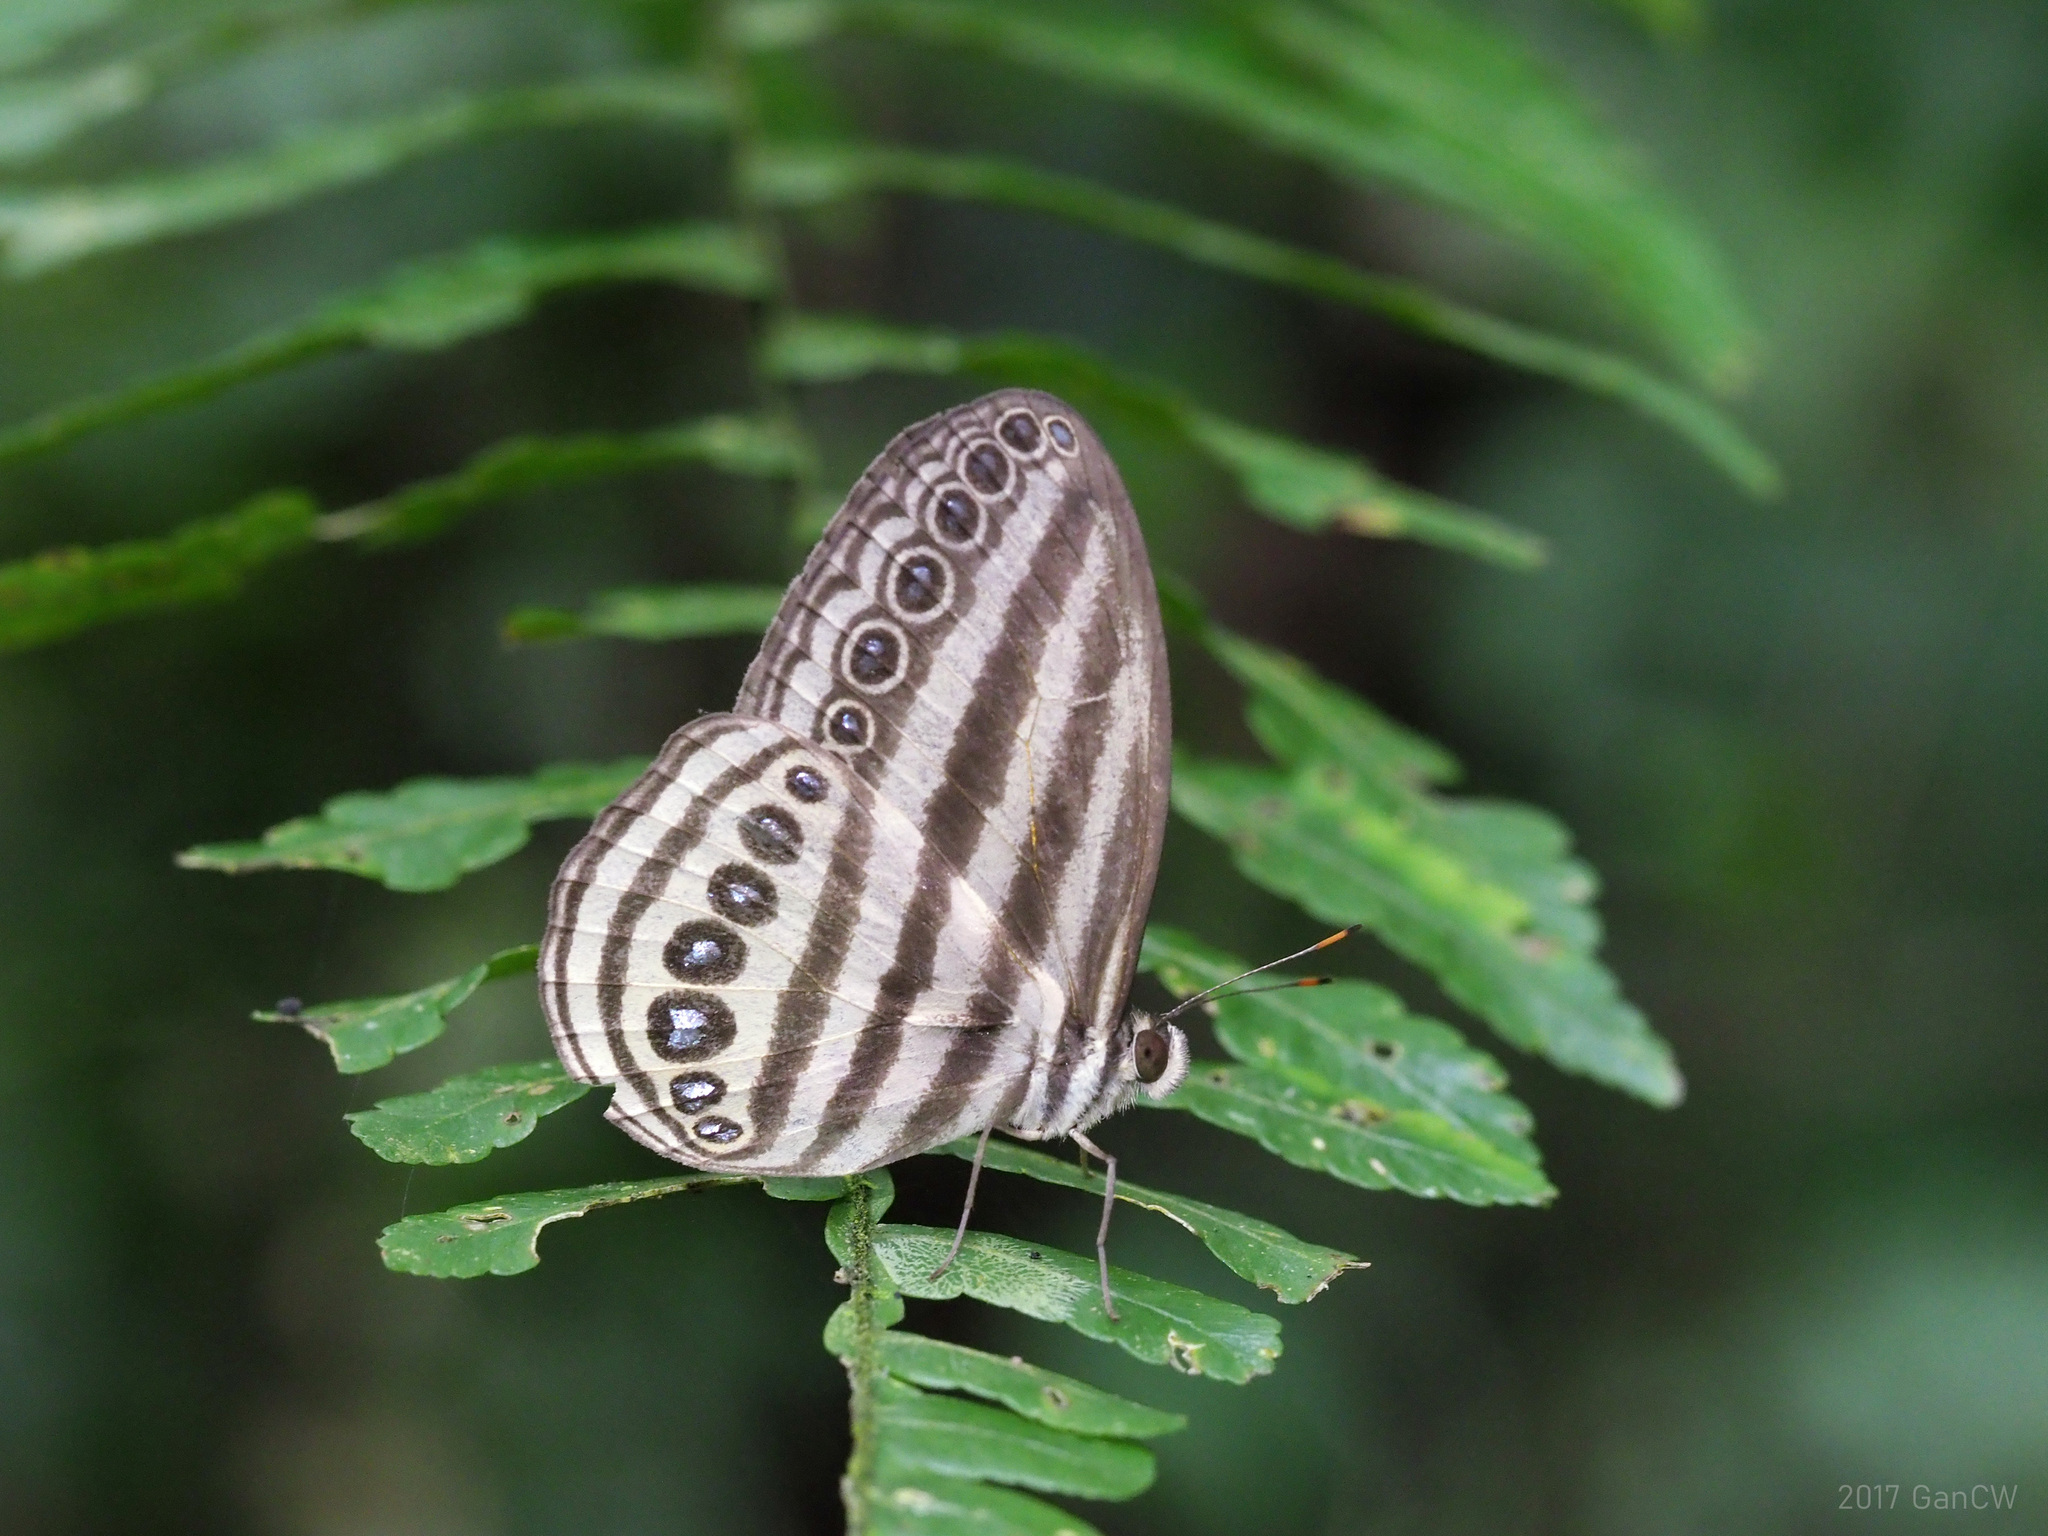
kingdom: Animalia
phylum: Arthropoda
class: Insecta
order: Lepidoptera
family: Nymphalidae
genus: Ragadia
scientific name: Ragadia makata
